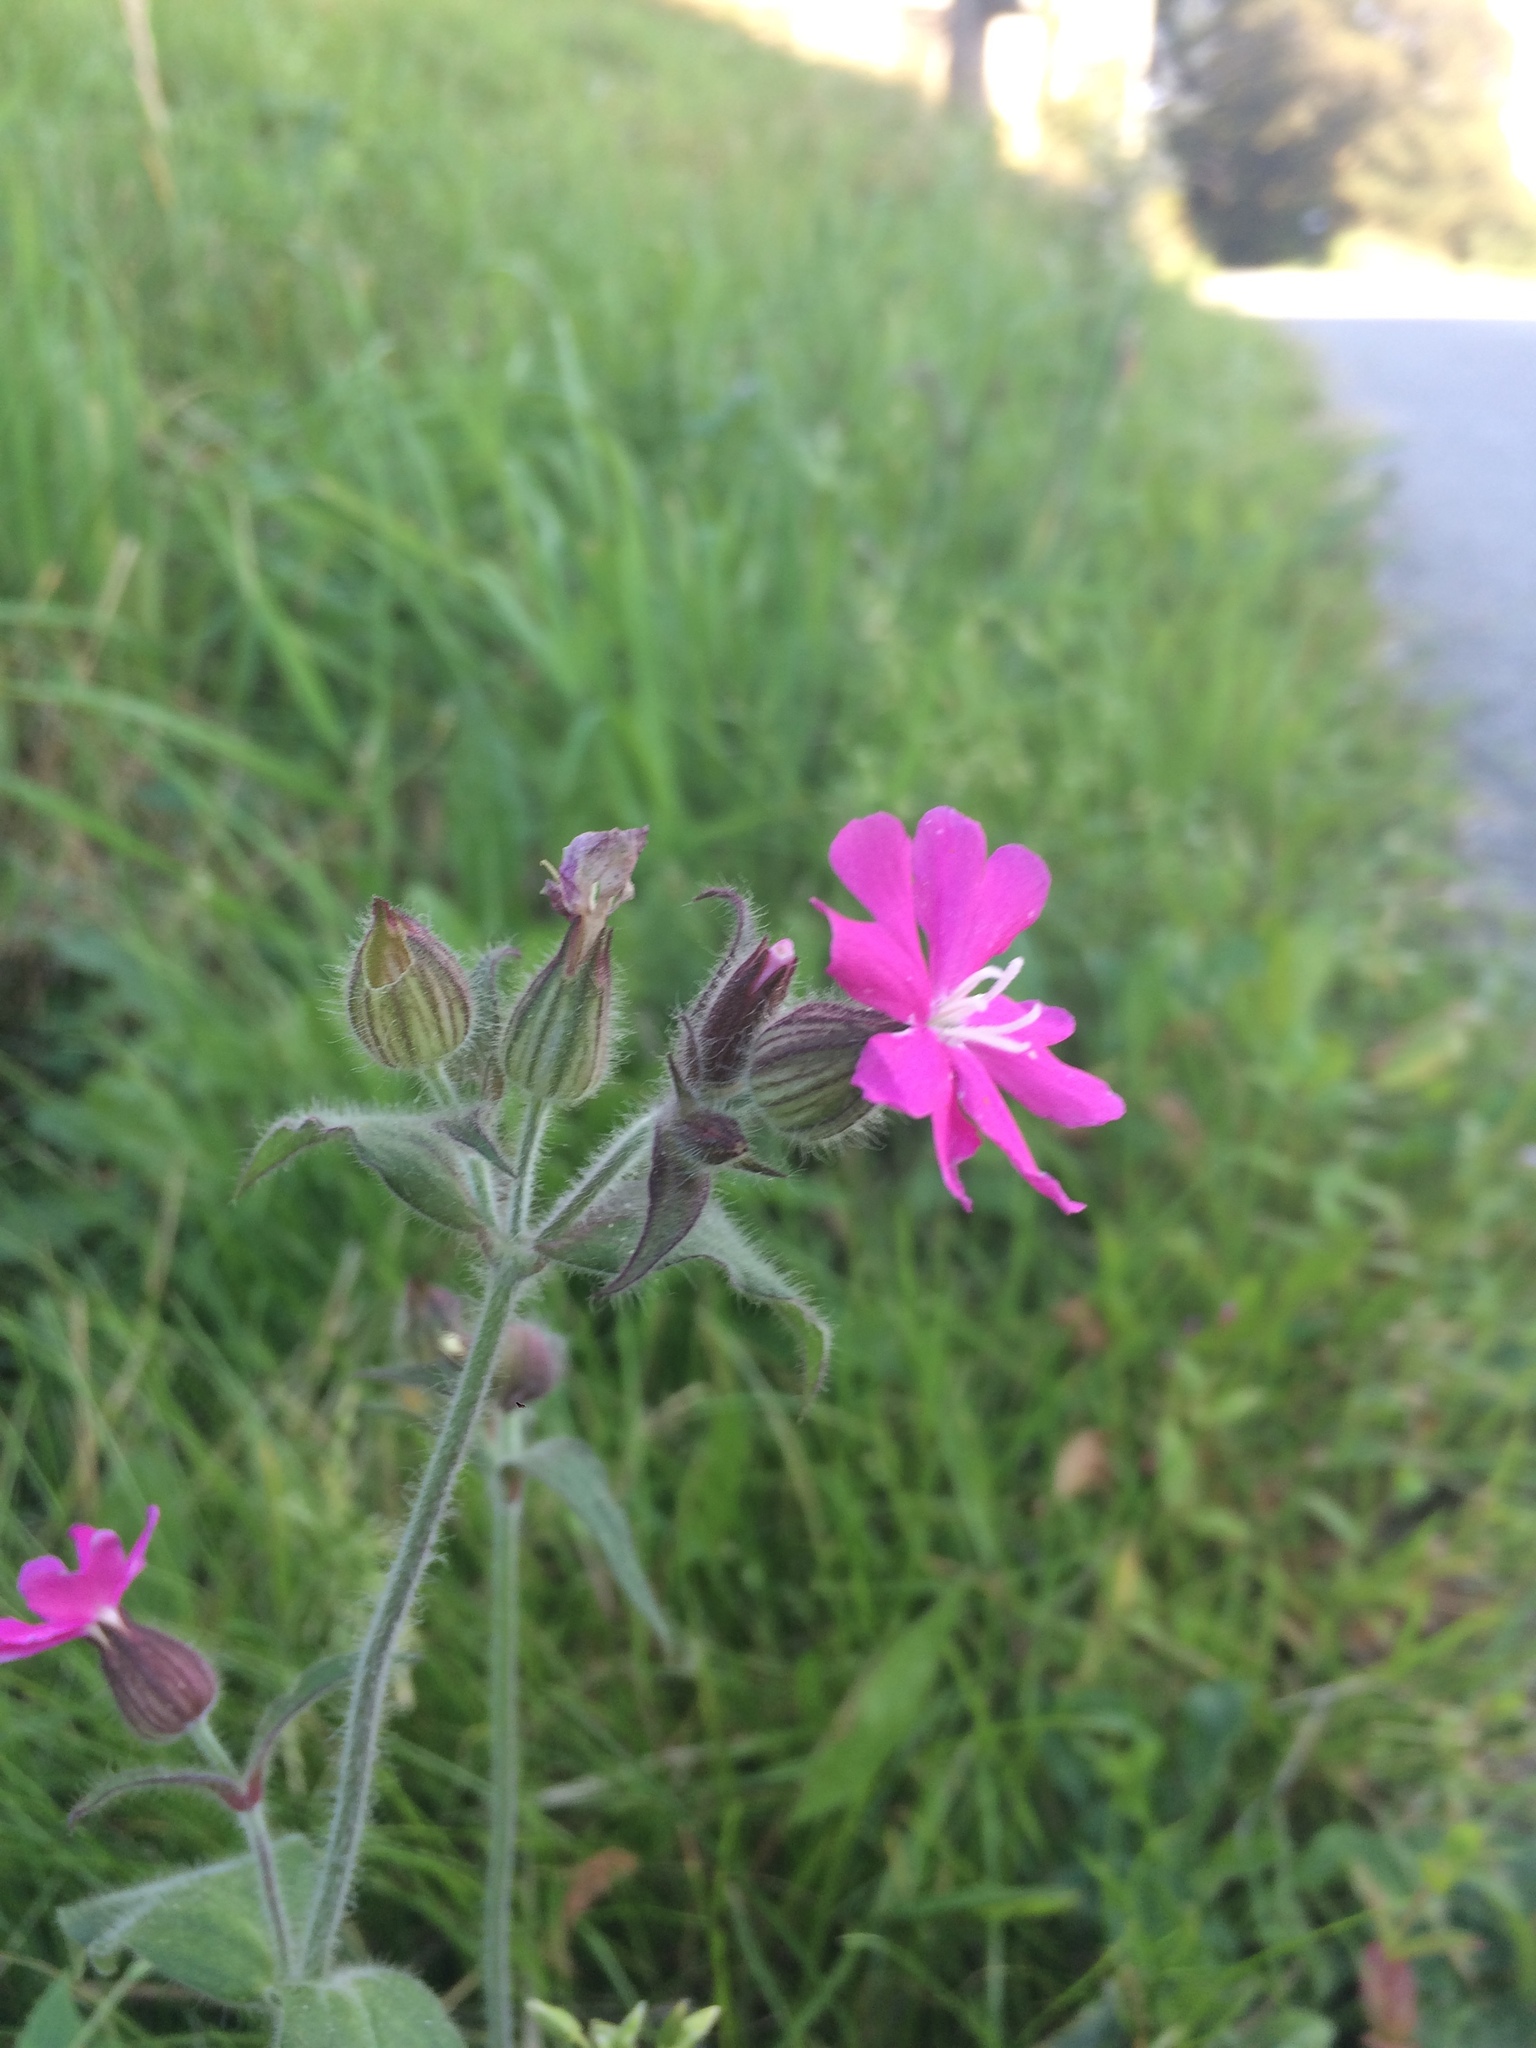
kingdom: Plantae
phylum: Tracheophyta
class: Magnoliopsida
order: Caryophyllales
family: Caryophyllaceae
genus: Silene
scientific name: Silene dioica
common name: Red campion
